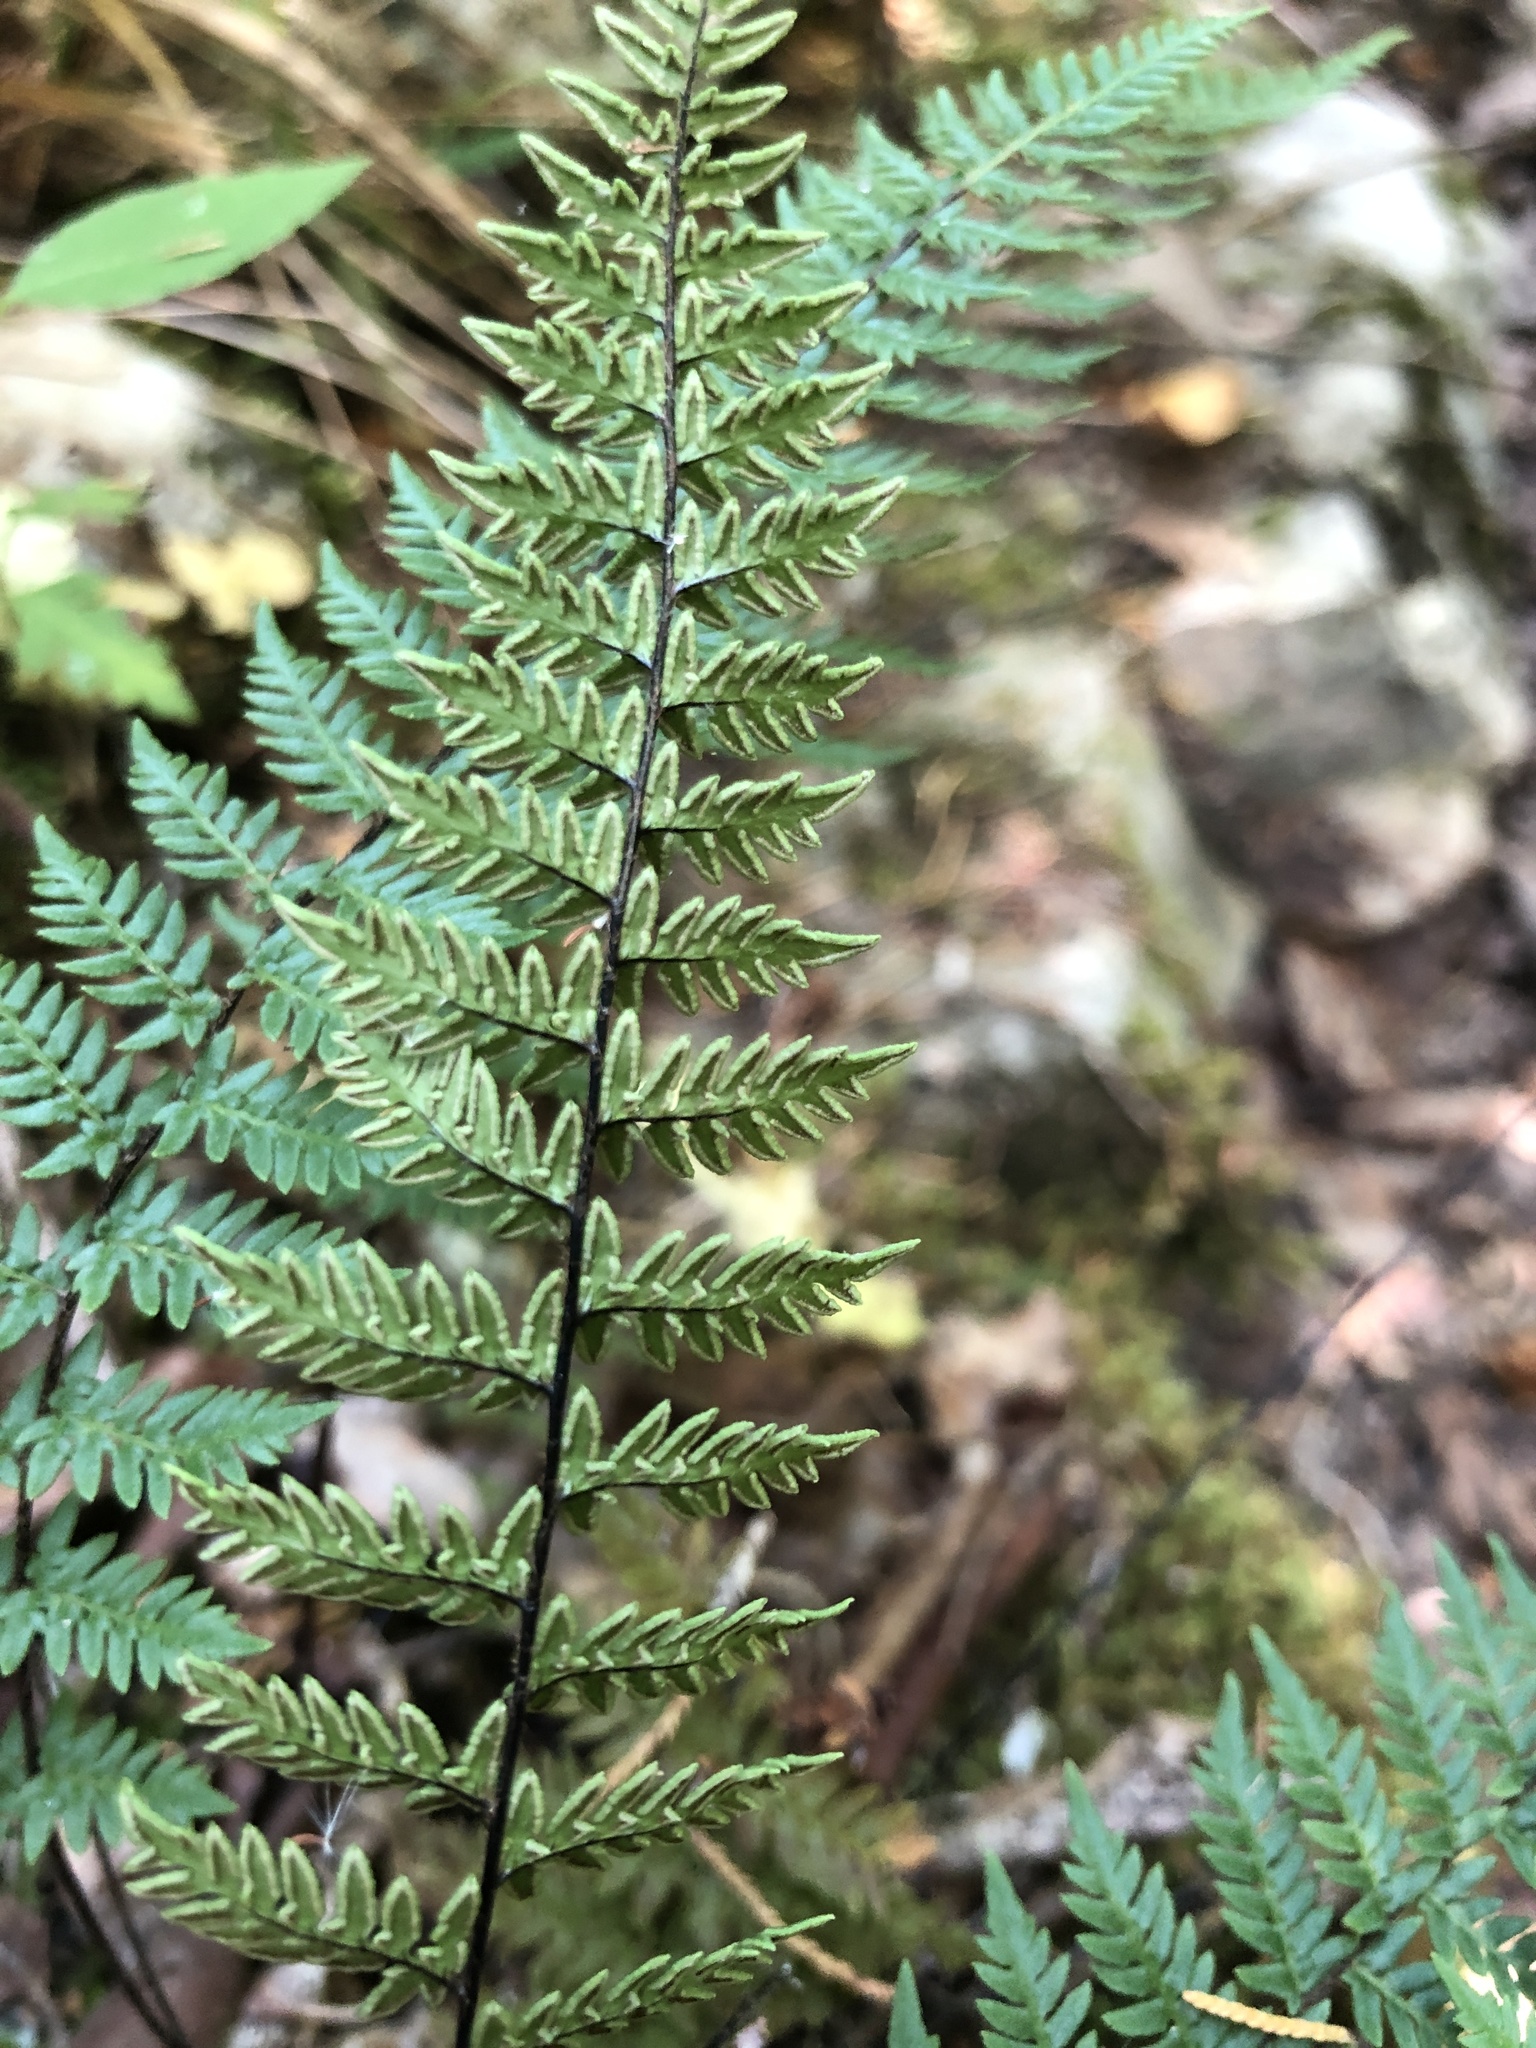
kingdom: Plantae
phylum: Tracheophyta
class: Polypodiopsida
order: Polypodiales
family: Pteridaceae
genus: Myriopteris
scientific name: Myriopteris alabamensis
